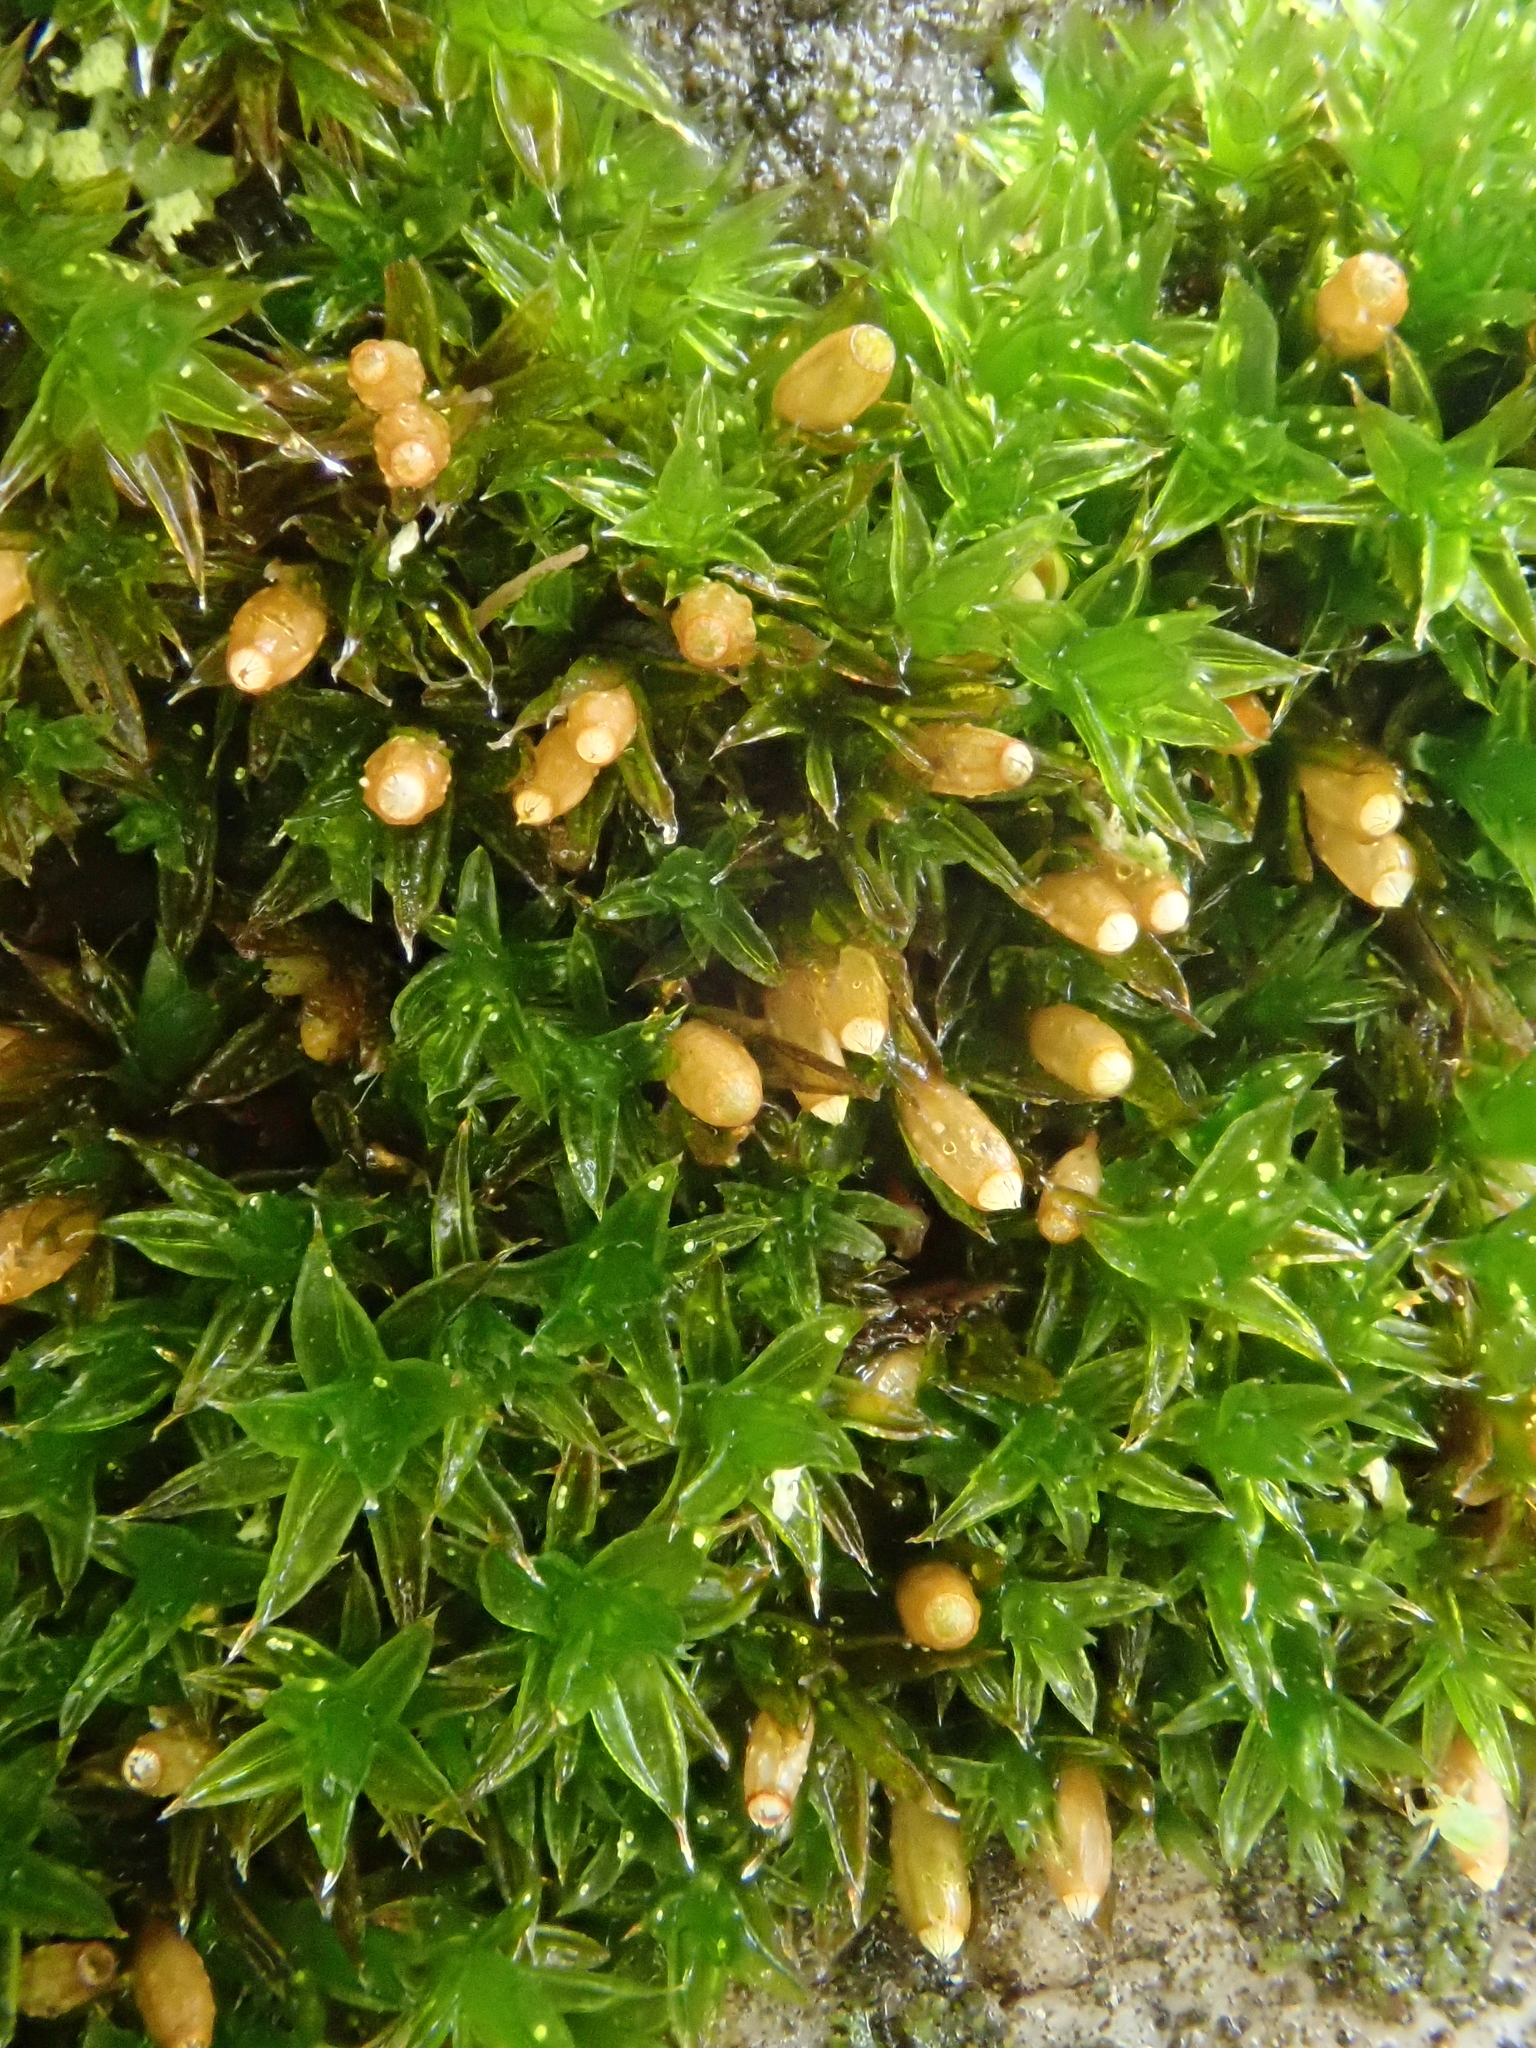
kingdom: Plantae
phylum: Bryophyta
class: Bryopsida
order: Orthotrichales
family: Orthotrichaceae
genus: Orthotrichum
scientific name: Orthotrichum diaphanum
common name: White-tipped bristle-moss
